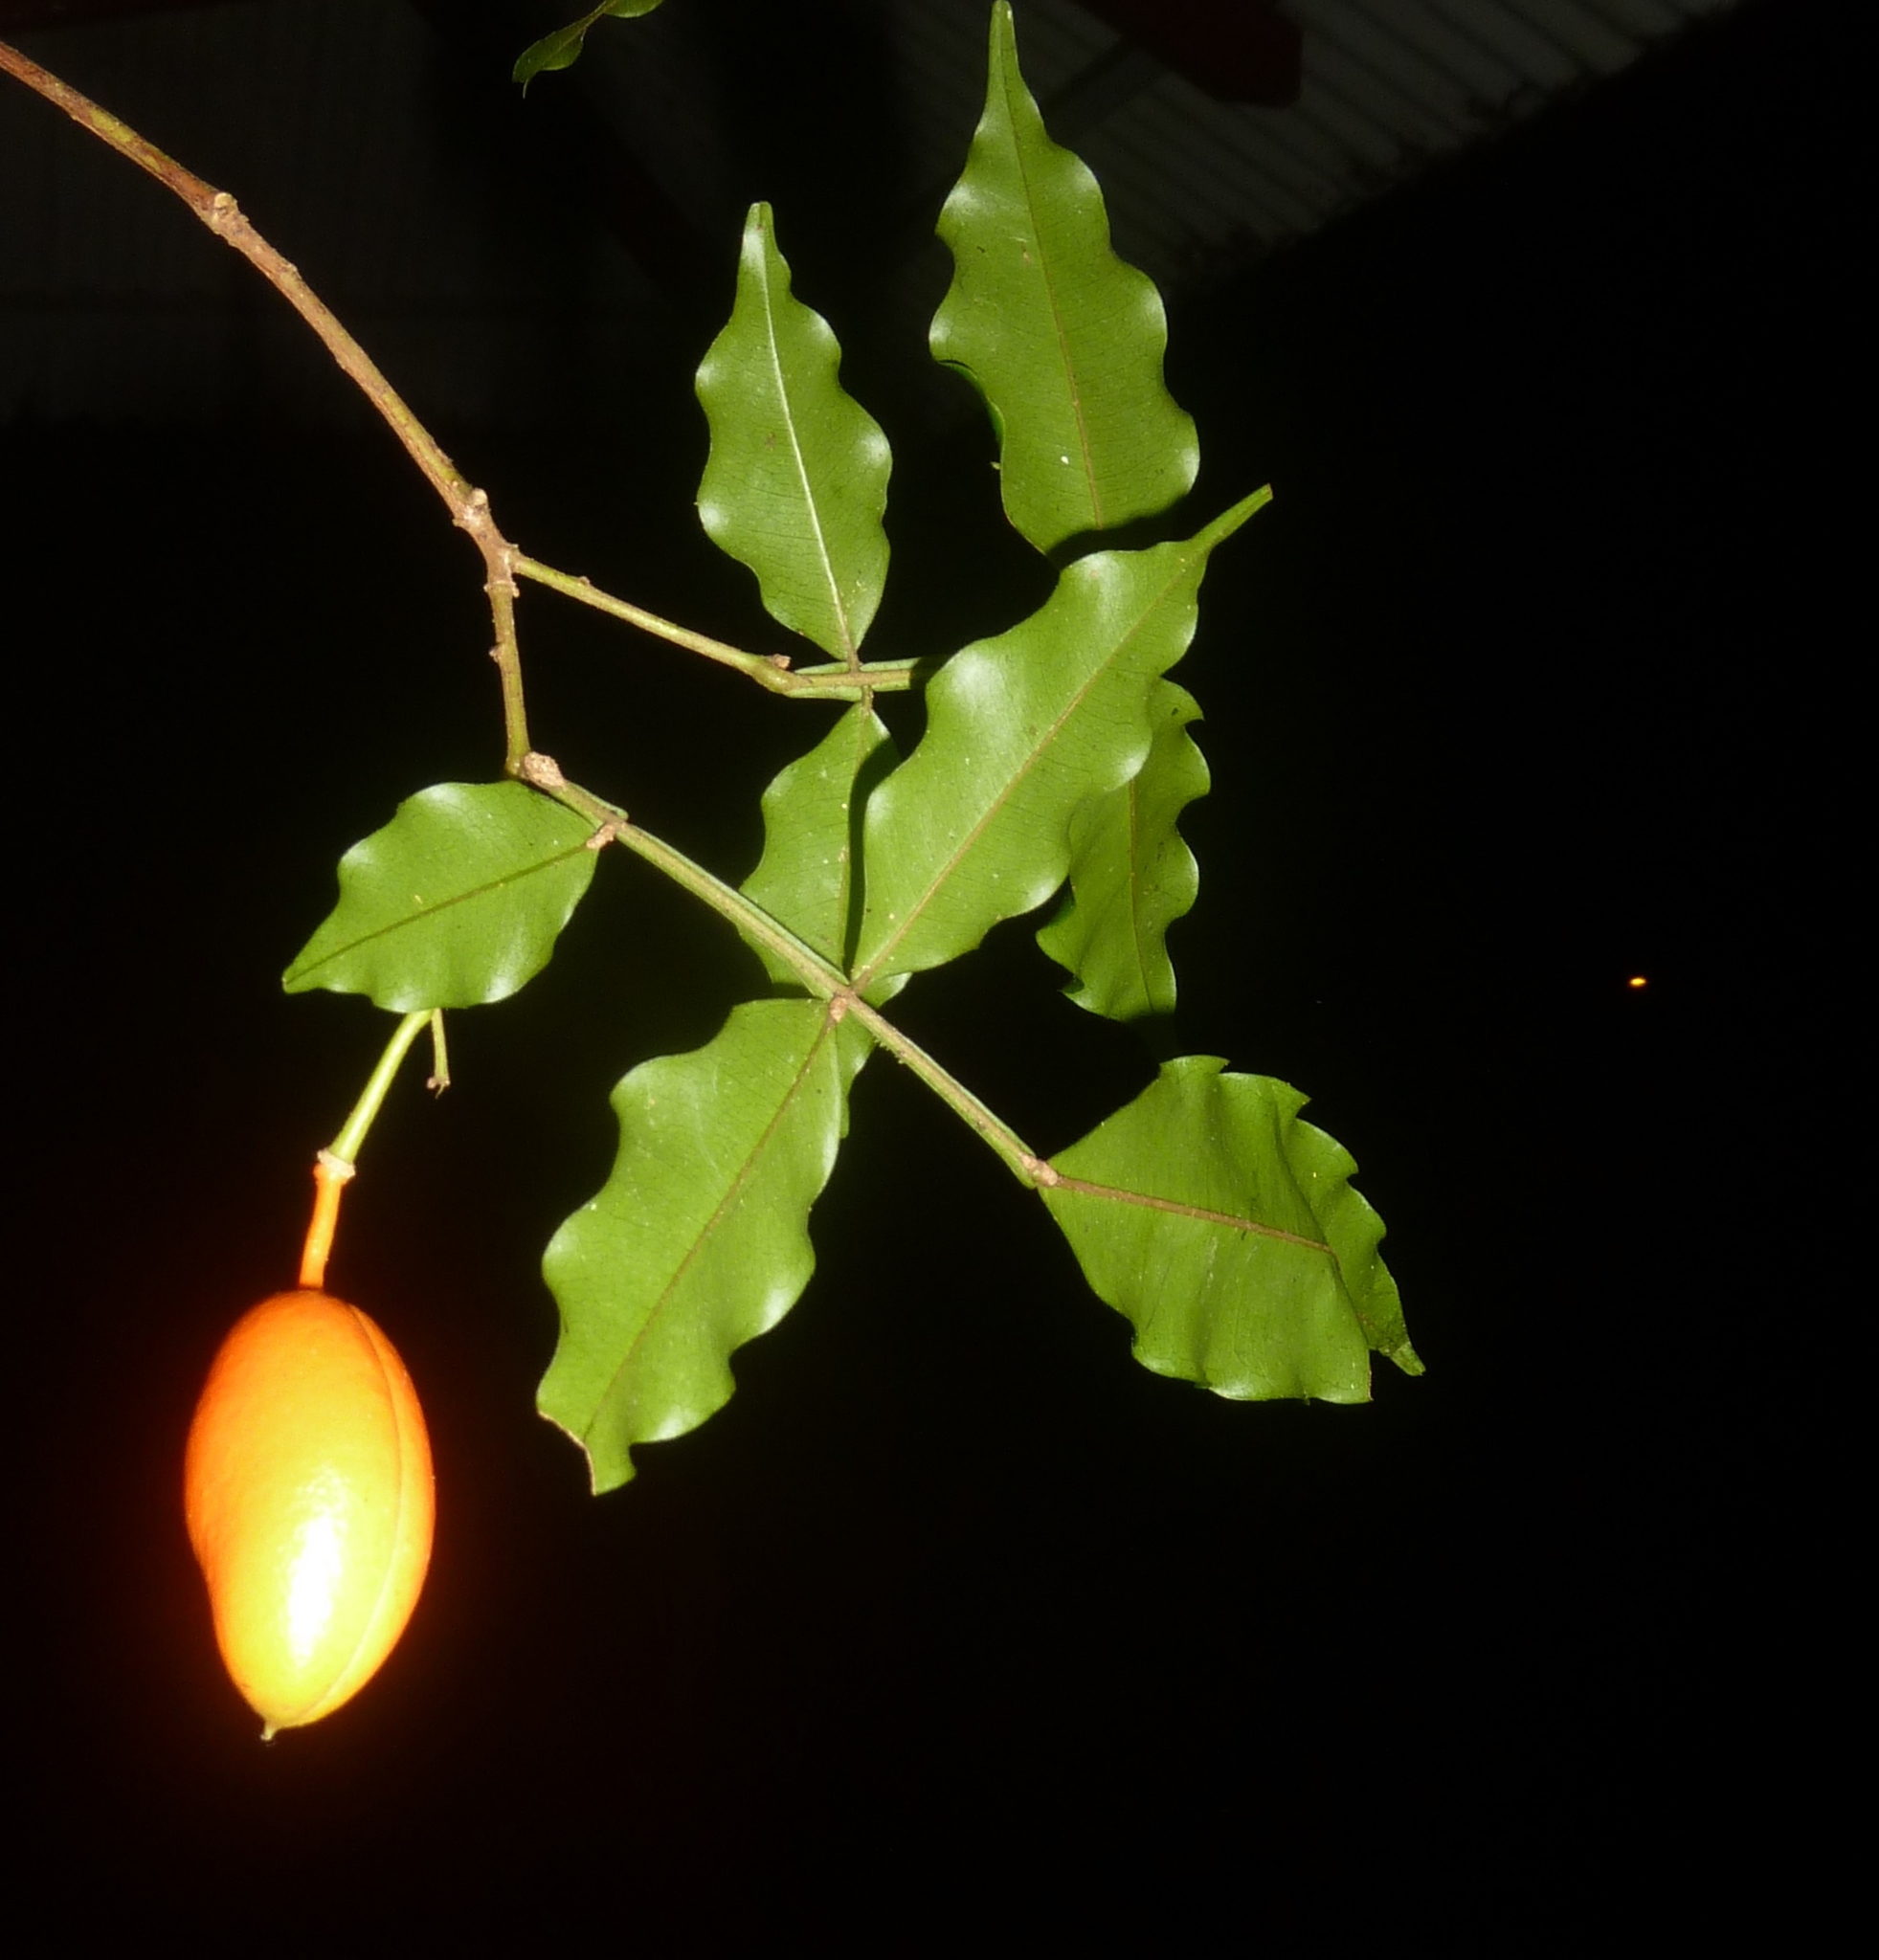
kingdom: Plantae
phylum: Tracheophyta
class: Magnoliopsida
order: Fabales
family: Fabaceae
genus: Swartzia
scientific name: Swartzia picramnioides
